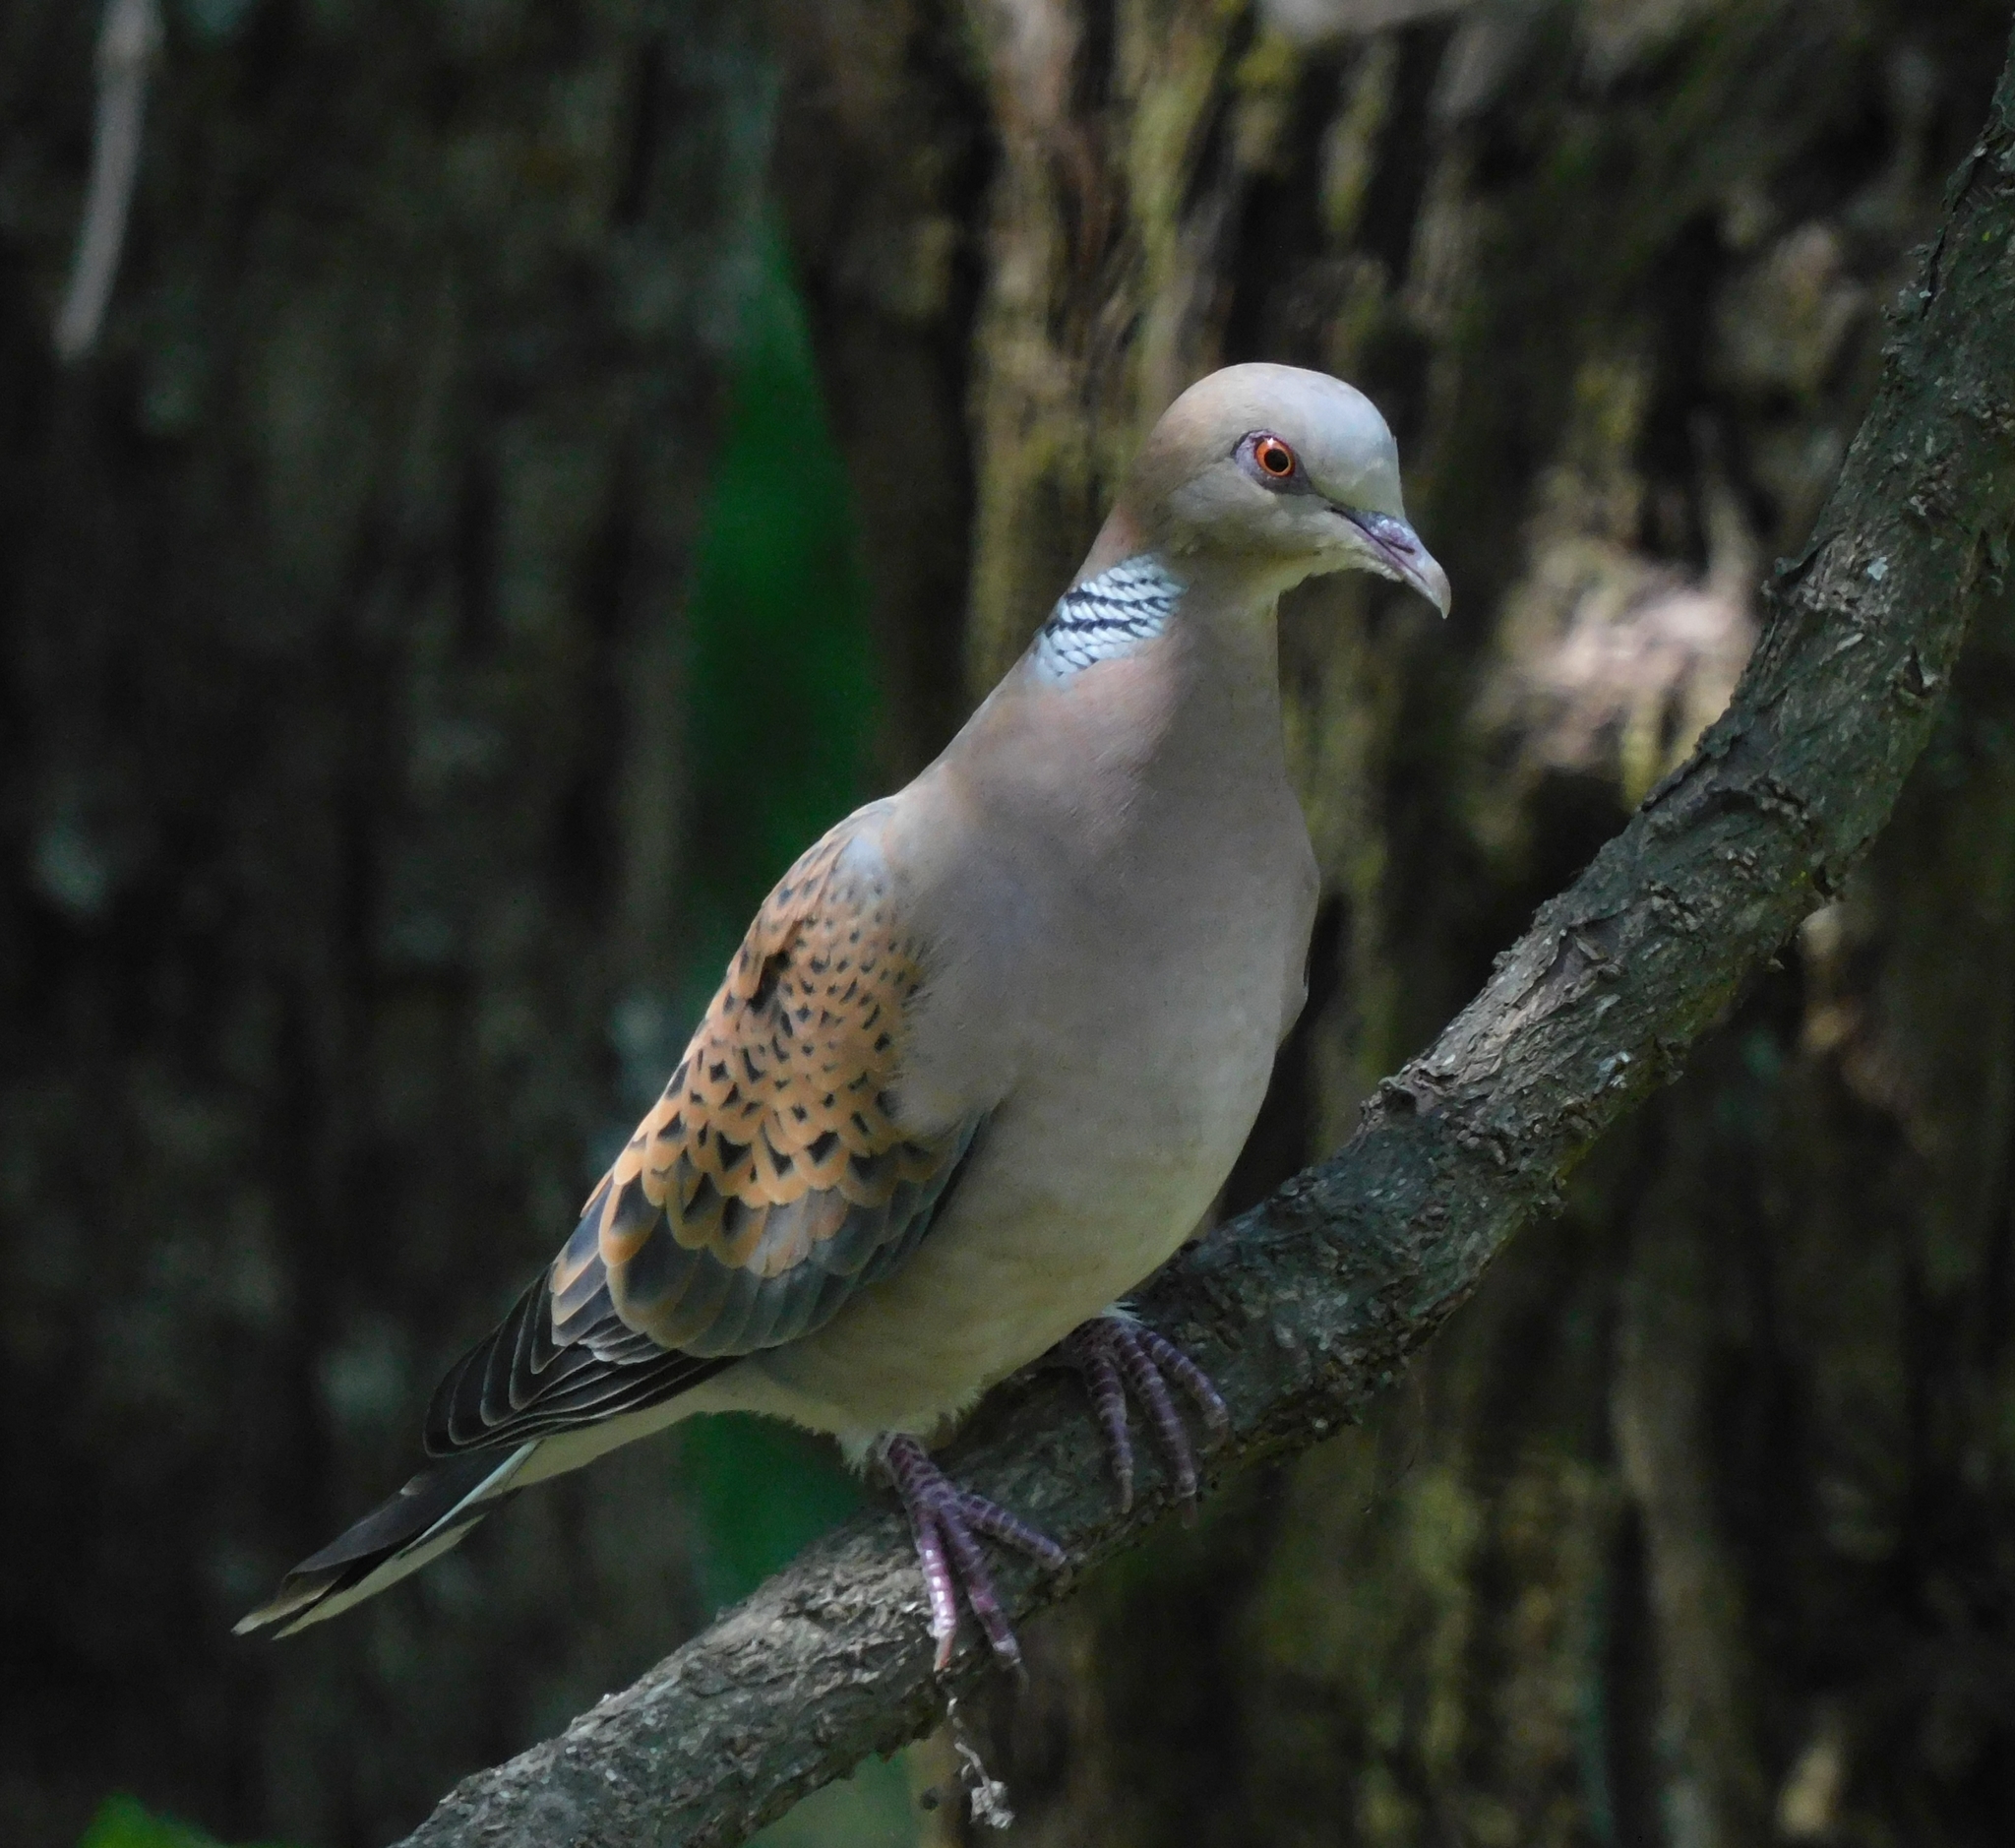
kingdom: Animalia
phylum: Chordata
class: Aves
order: Columbiformes
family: Columbidae
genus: Streptopelia
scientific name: Streptopelia orientalis
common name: Oriental turtle dove
